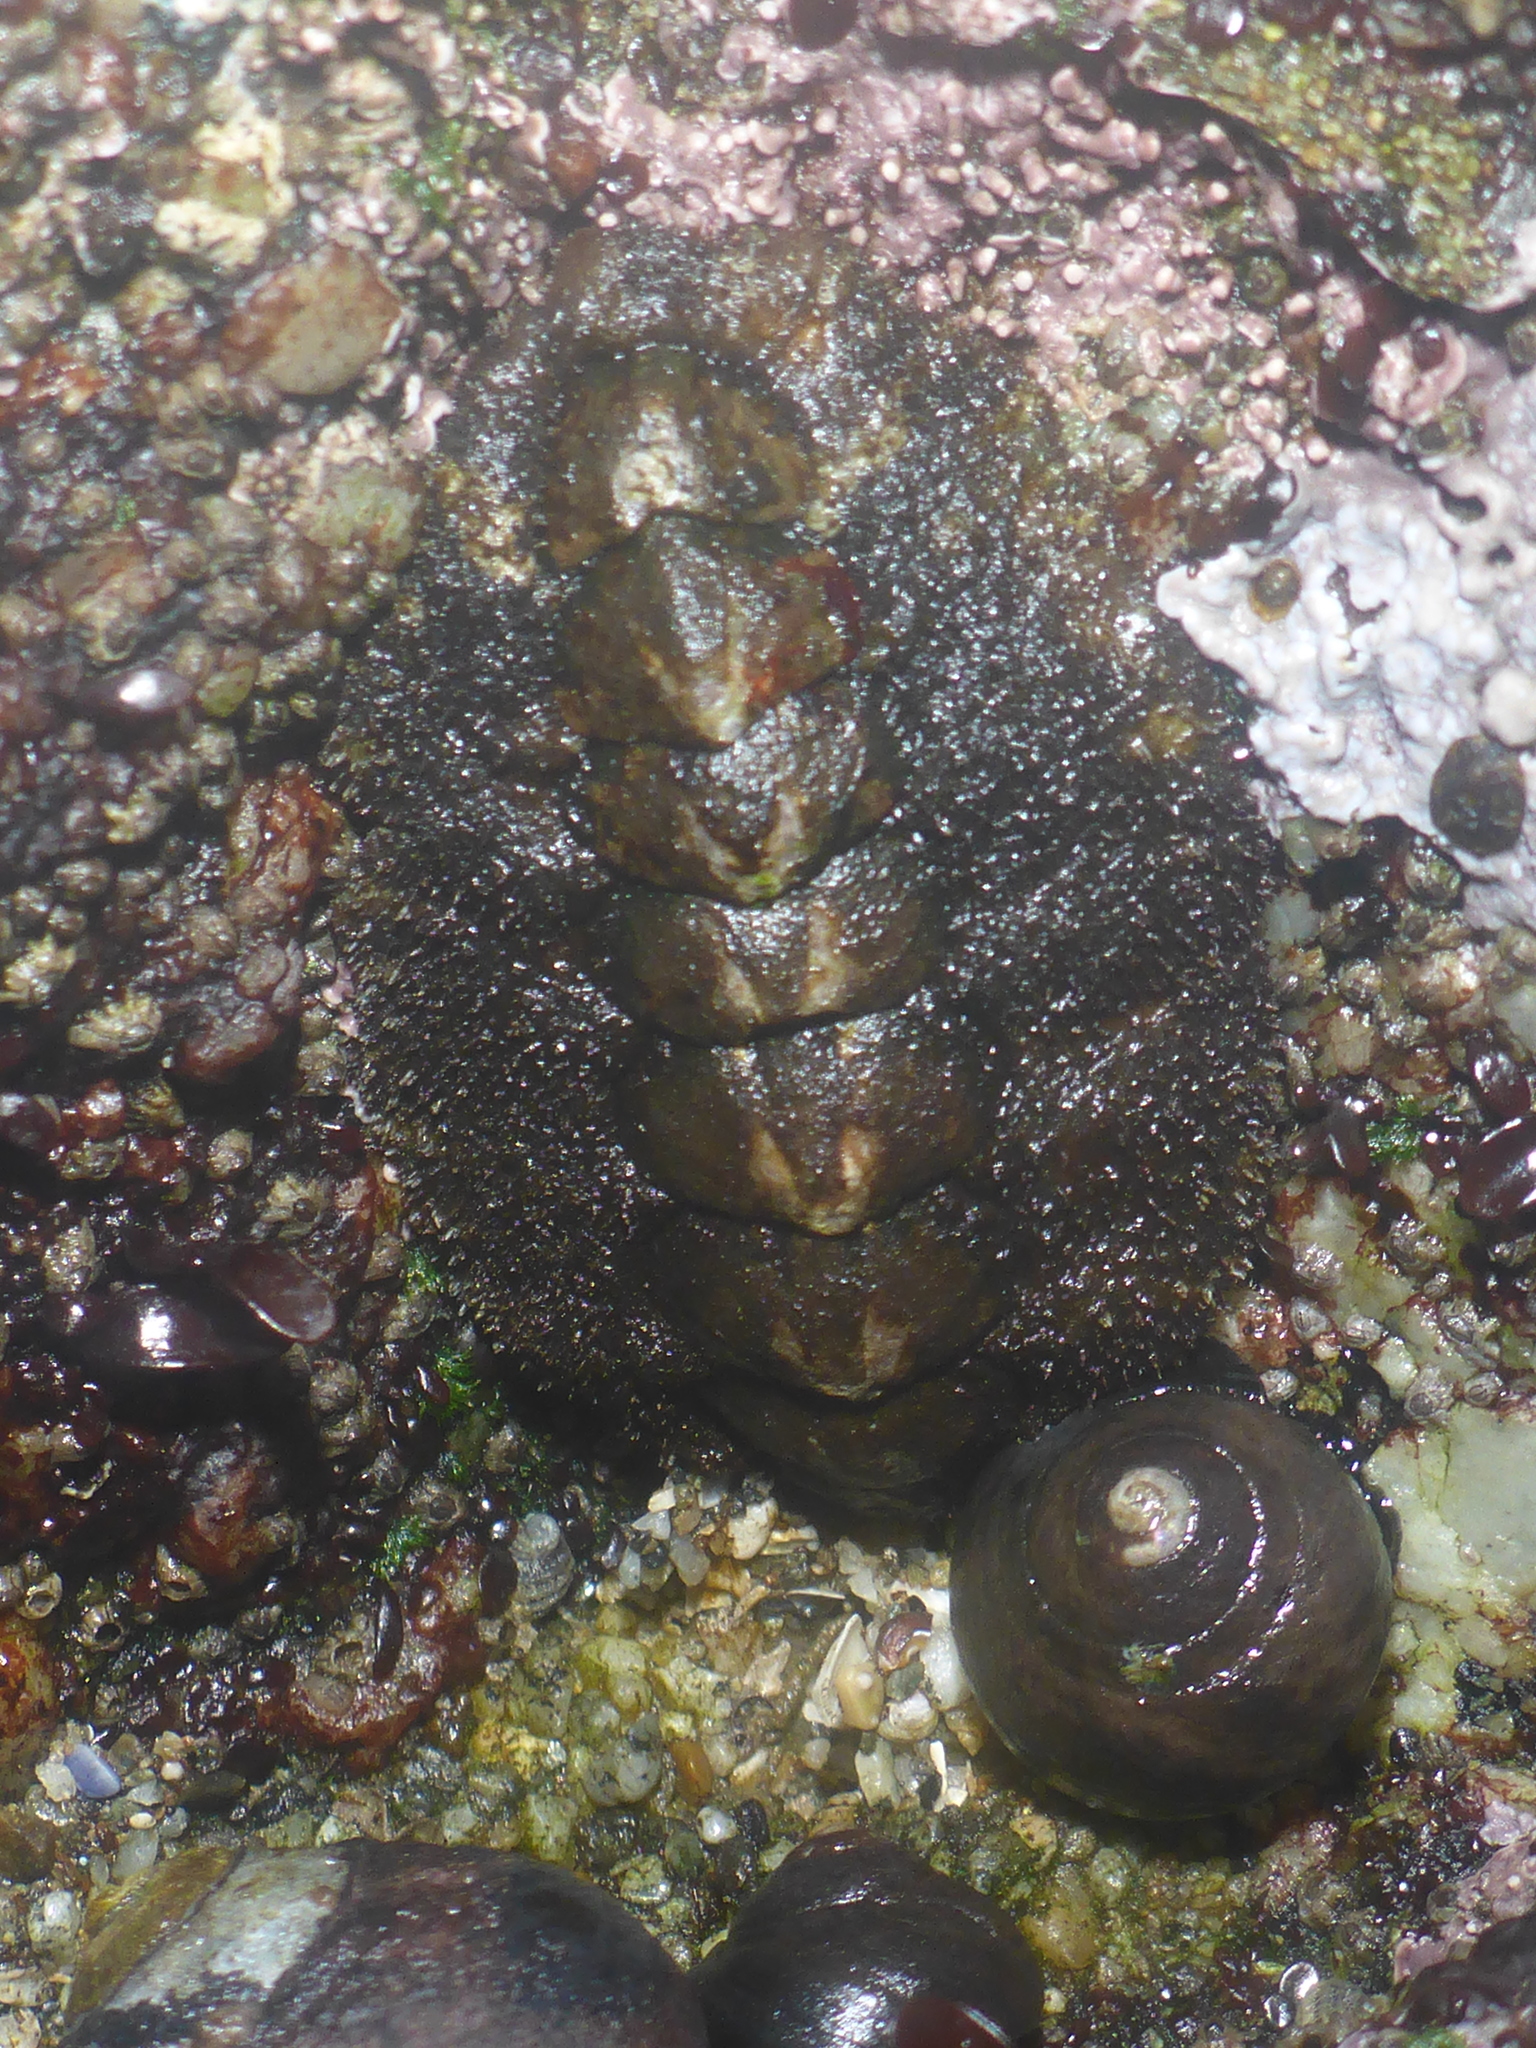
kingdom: Animalia
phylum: Mollusca
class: Polyplacophora
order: Chitonida
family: Tonicellidae
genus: Nuttallina
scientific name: Nuttallina californica
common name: California nuttall chiton
